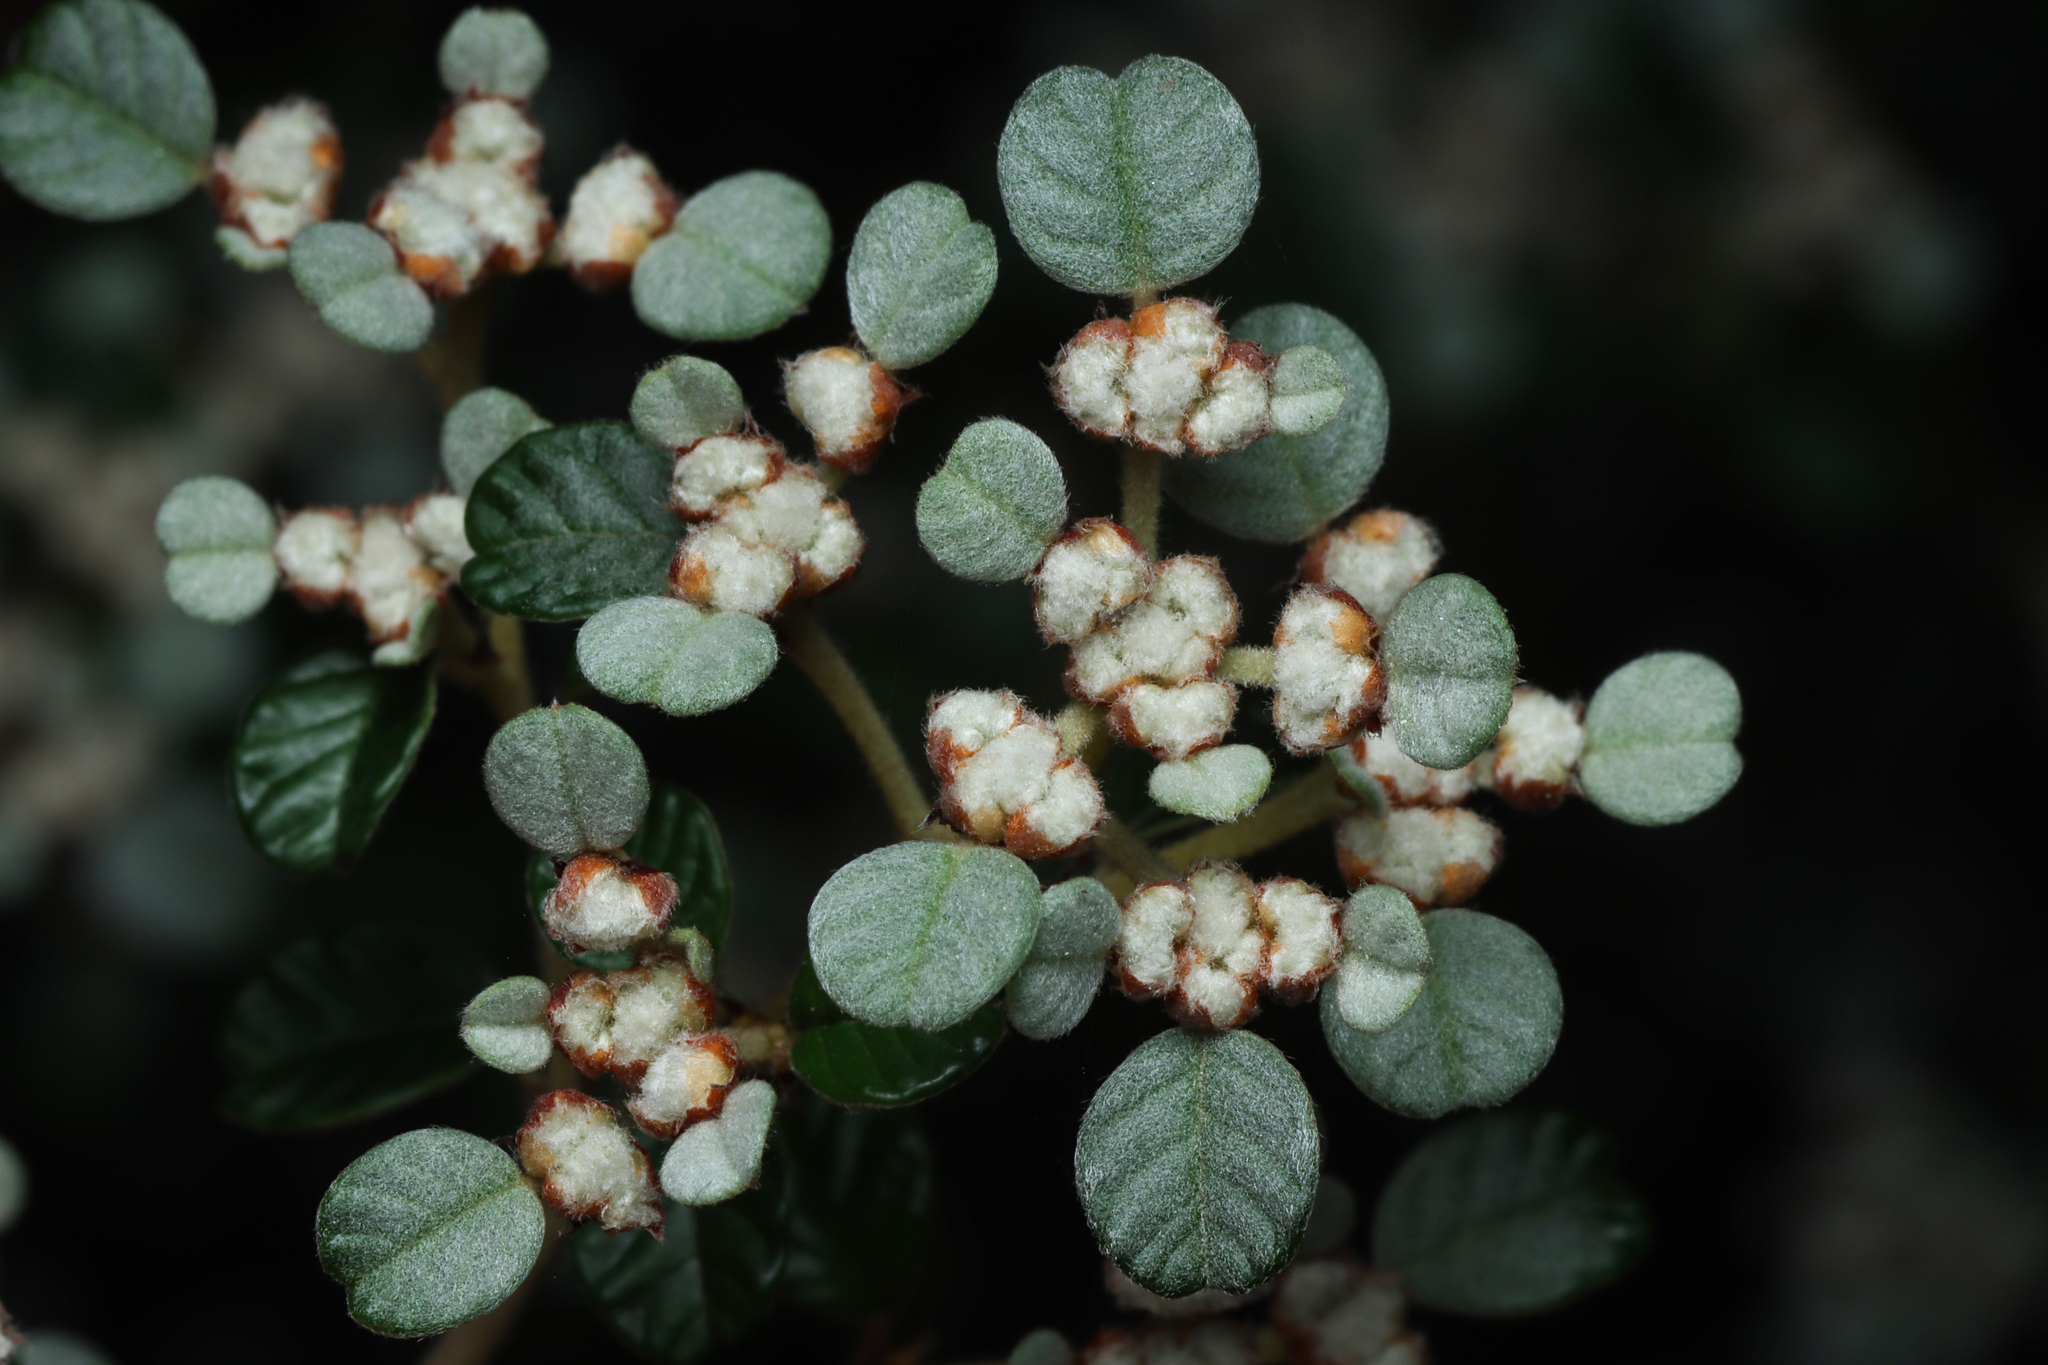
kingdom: Plantae
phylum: Tracheophyta
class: Magnoliopsida
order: Rosales
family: Rhamnaceae
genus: Spyridium
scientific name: Spyridium parvifolium
